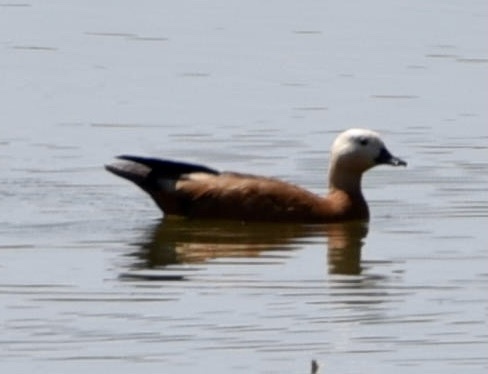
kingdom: Animalia
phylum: Chordata
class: Aves
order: Anseriformes
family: Anatidae
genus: Tadorna
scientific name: Tadorna ferruginea
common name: Ruddy shelduck
